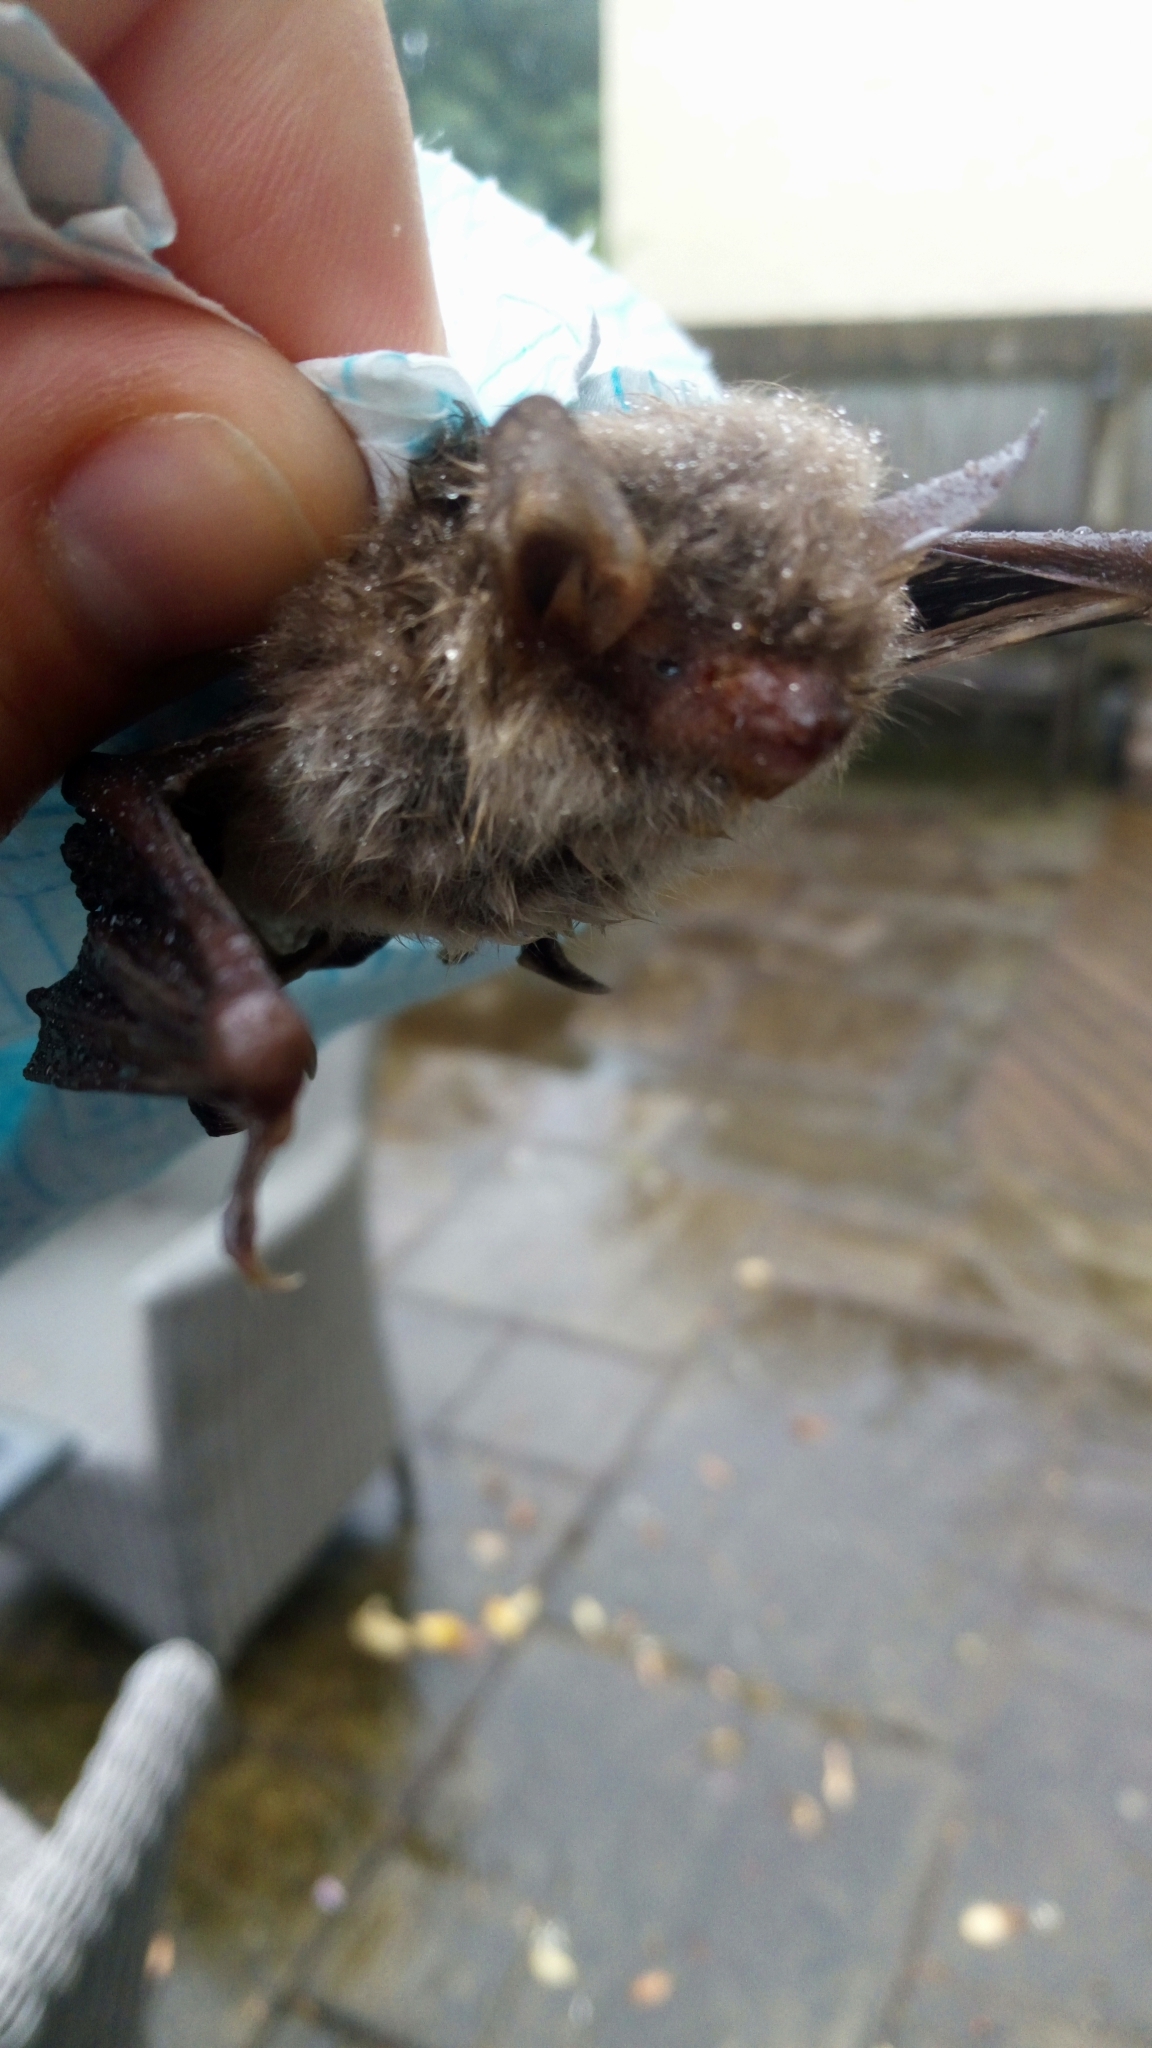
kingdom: Animalia
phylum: Chordata
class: Mammalia
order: Chiroptera
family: Vespertilionidae
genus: Myotis
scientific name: Myotis nattereri
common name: Natterer's bat
